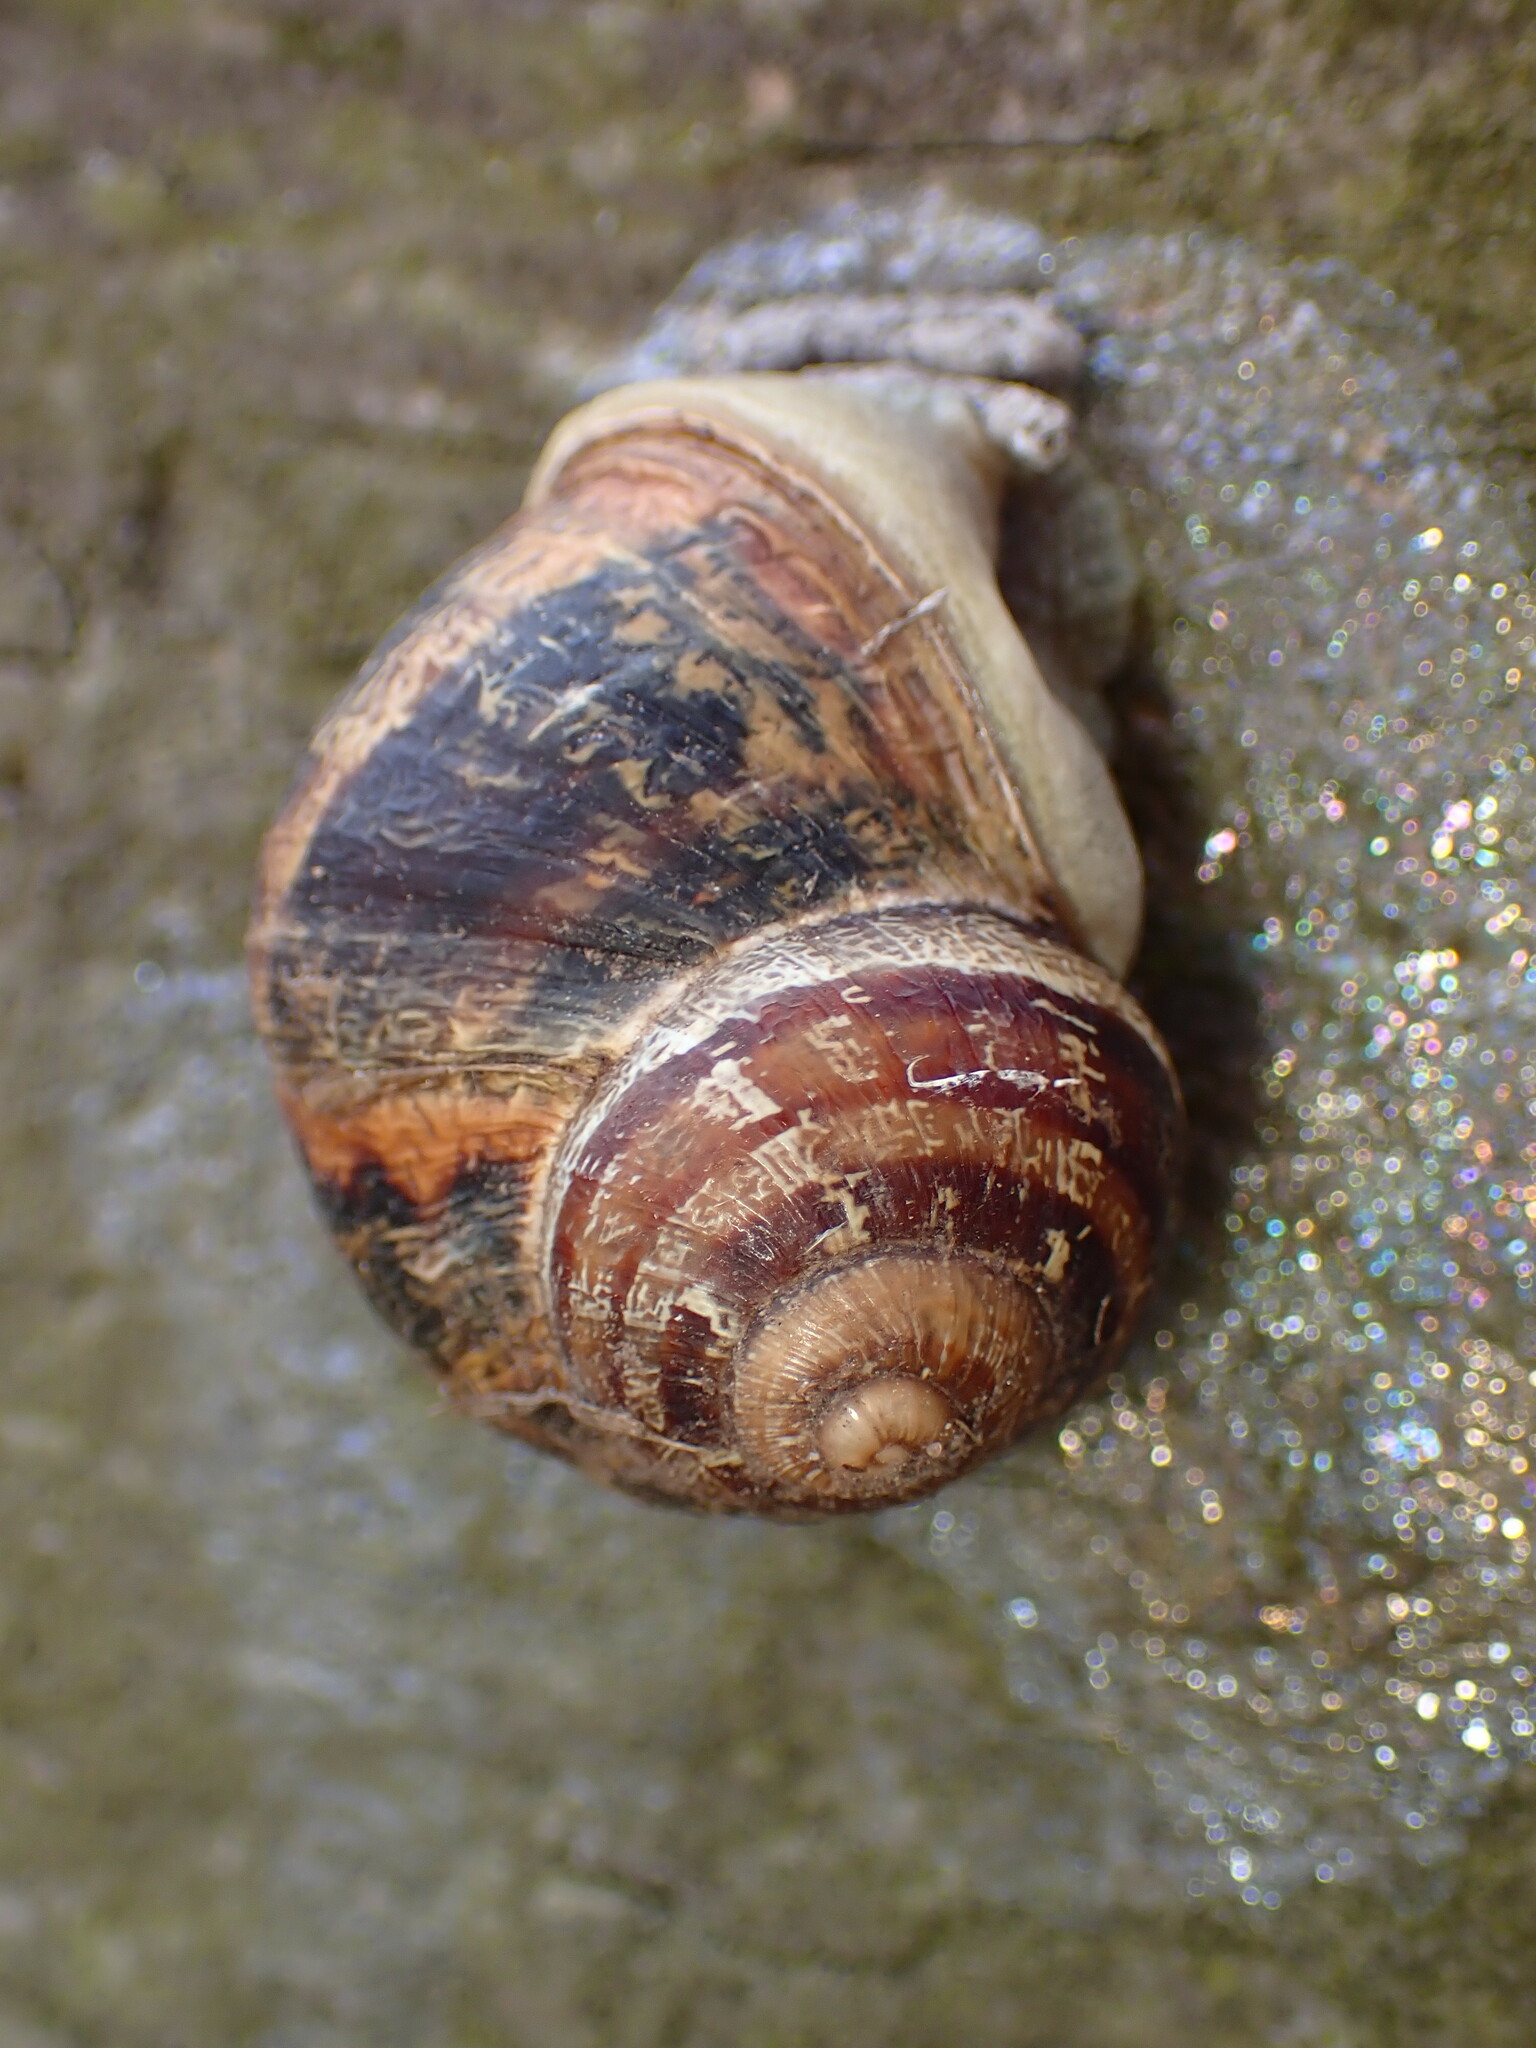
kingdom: Animalia
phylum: Mollusca
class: Gastropoda
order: Stylommatophora
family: Helicidae
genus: Cornu
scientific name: Cornu aspersum
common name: Brown garden snail
